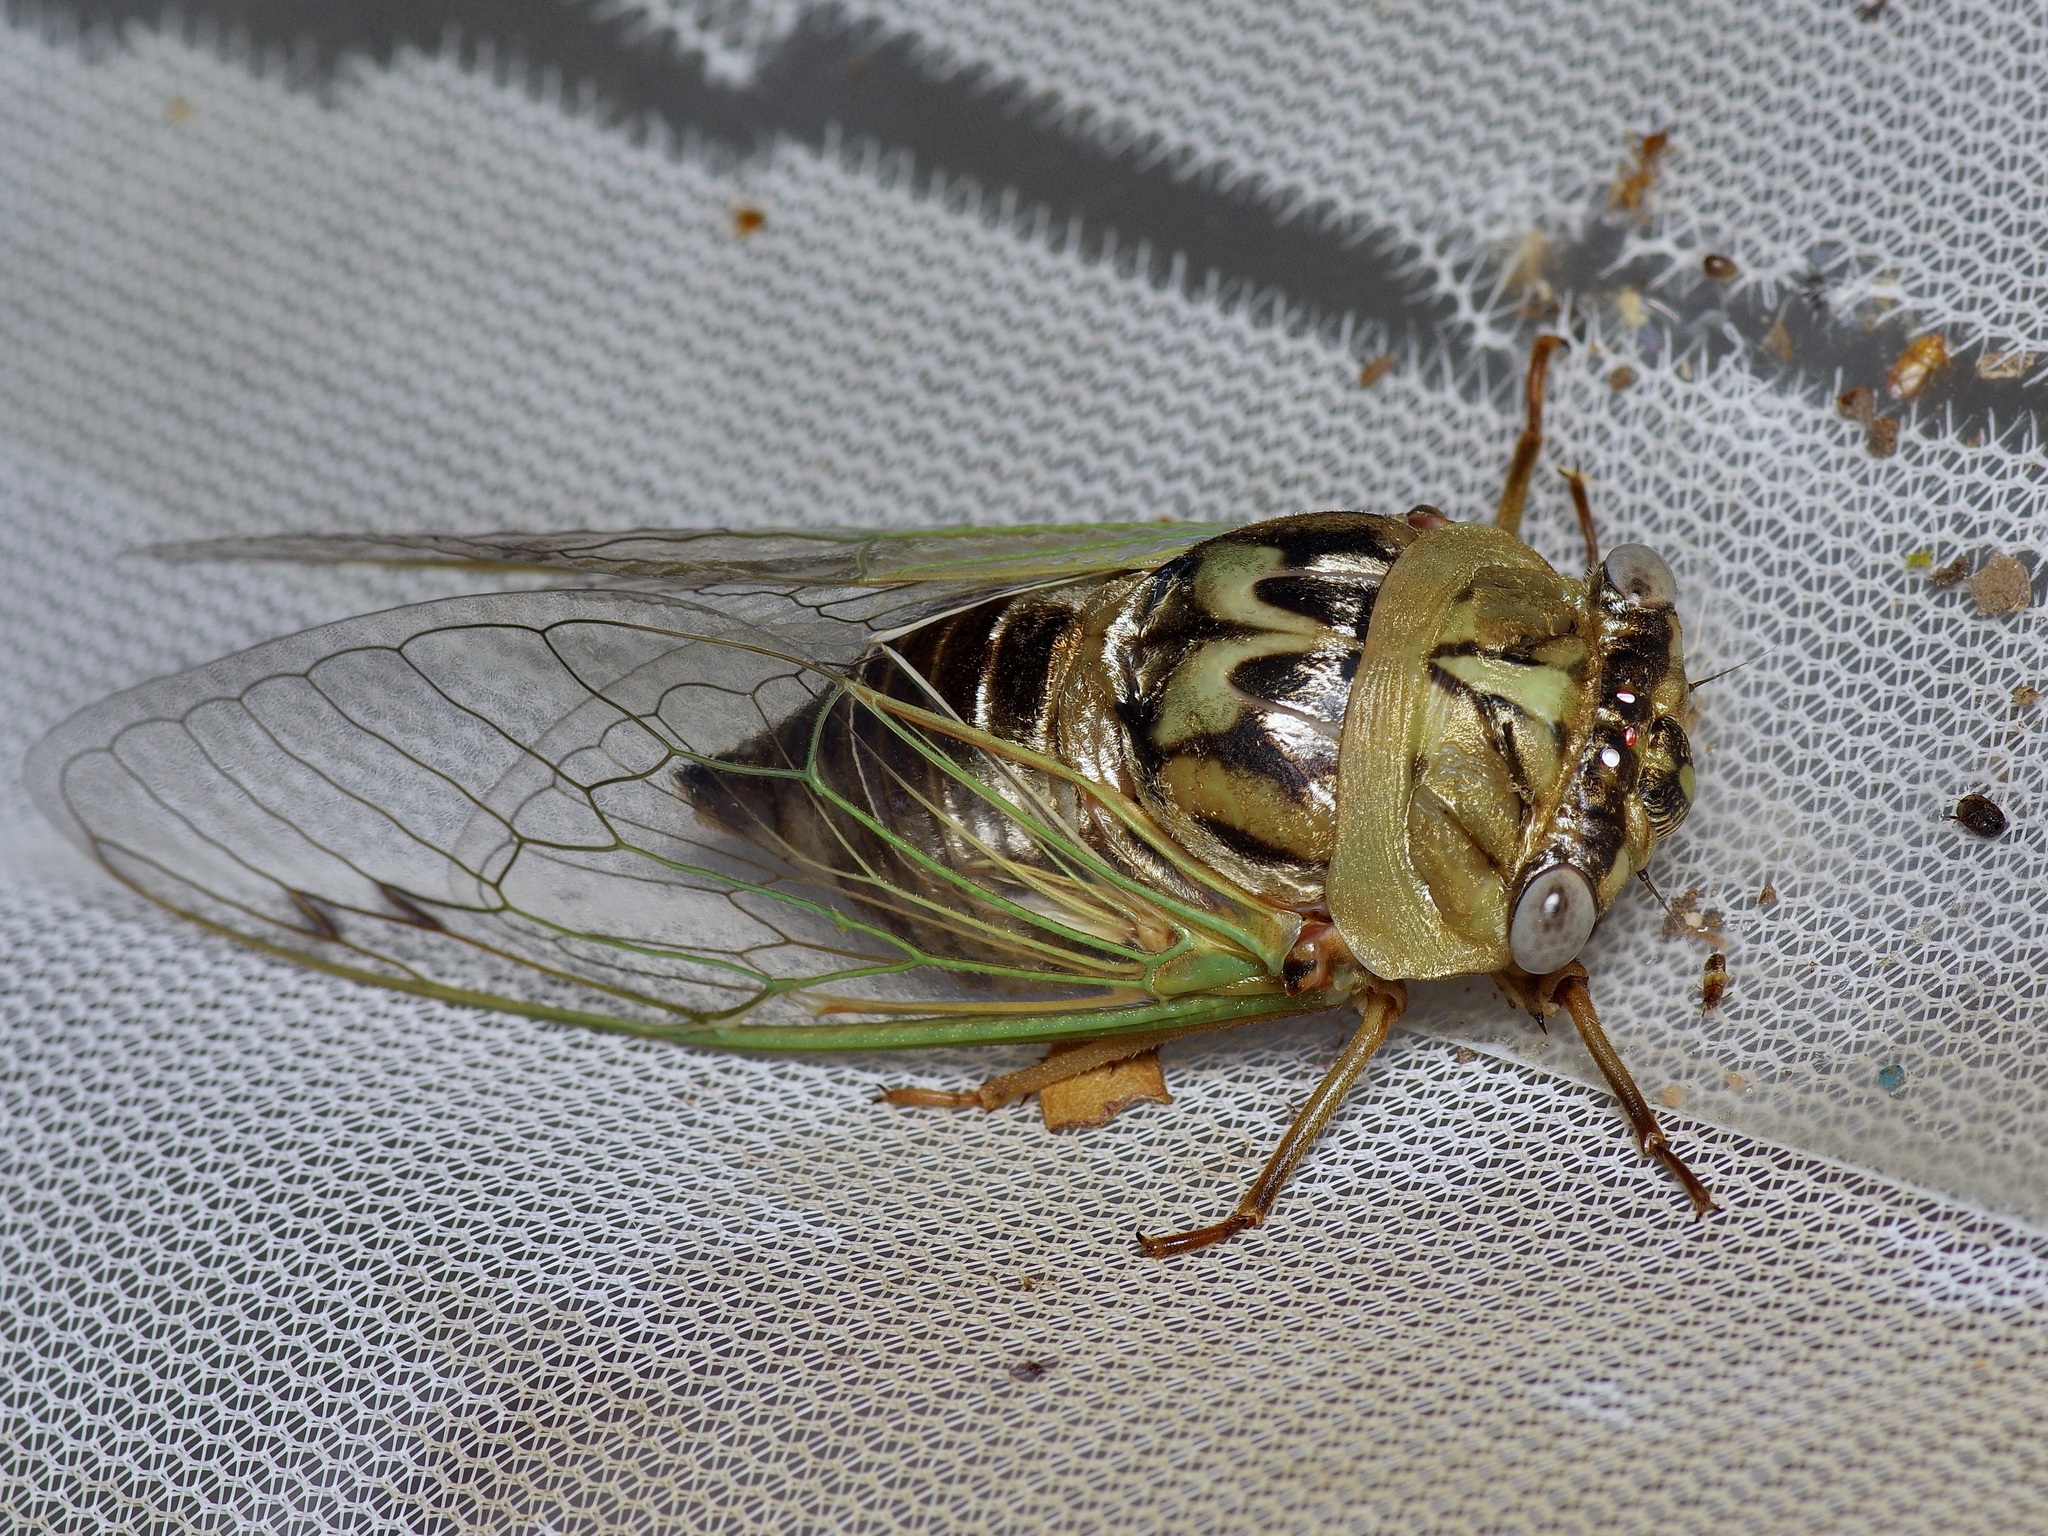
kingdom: Animalia
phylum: Arthropoda
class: Insecta
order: Hemiptera
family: Cicadidae
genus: Megatibicen
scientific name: Megatibicen resh
